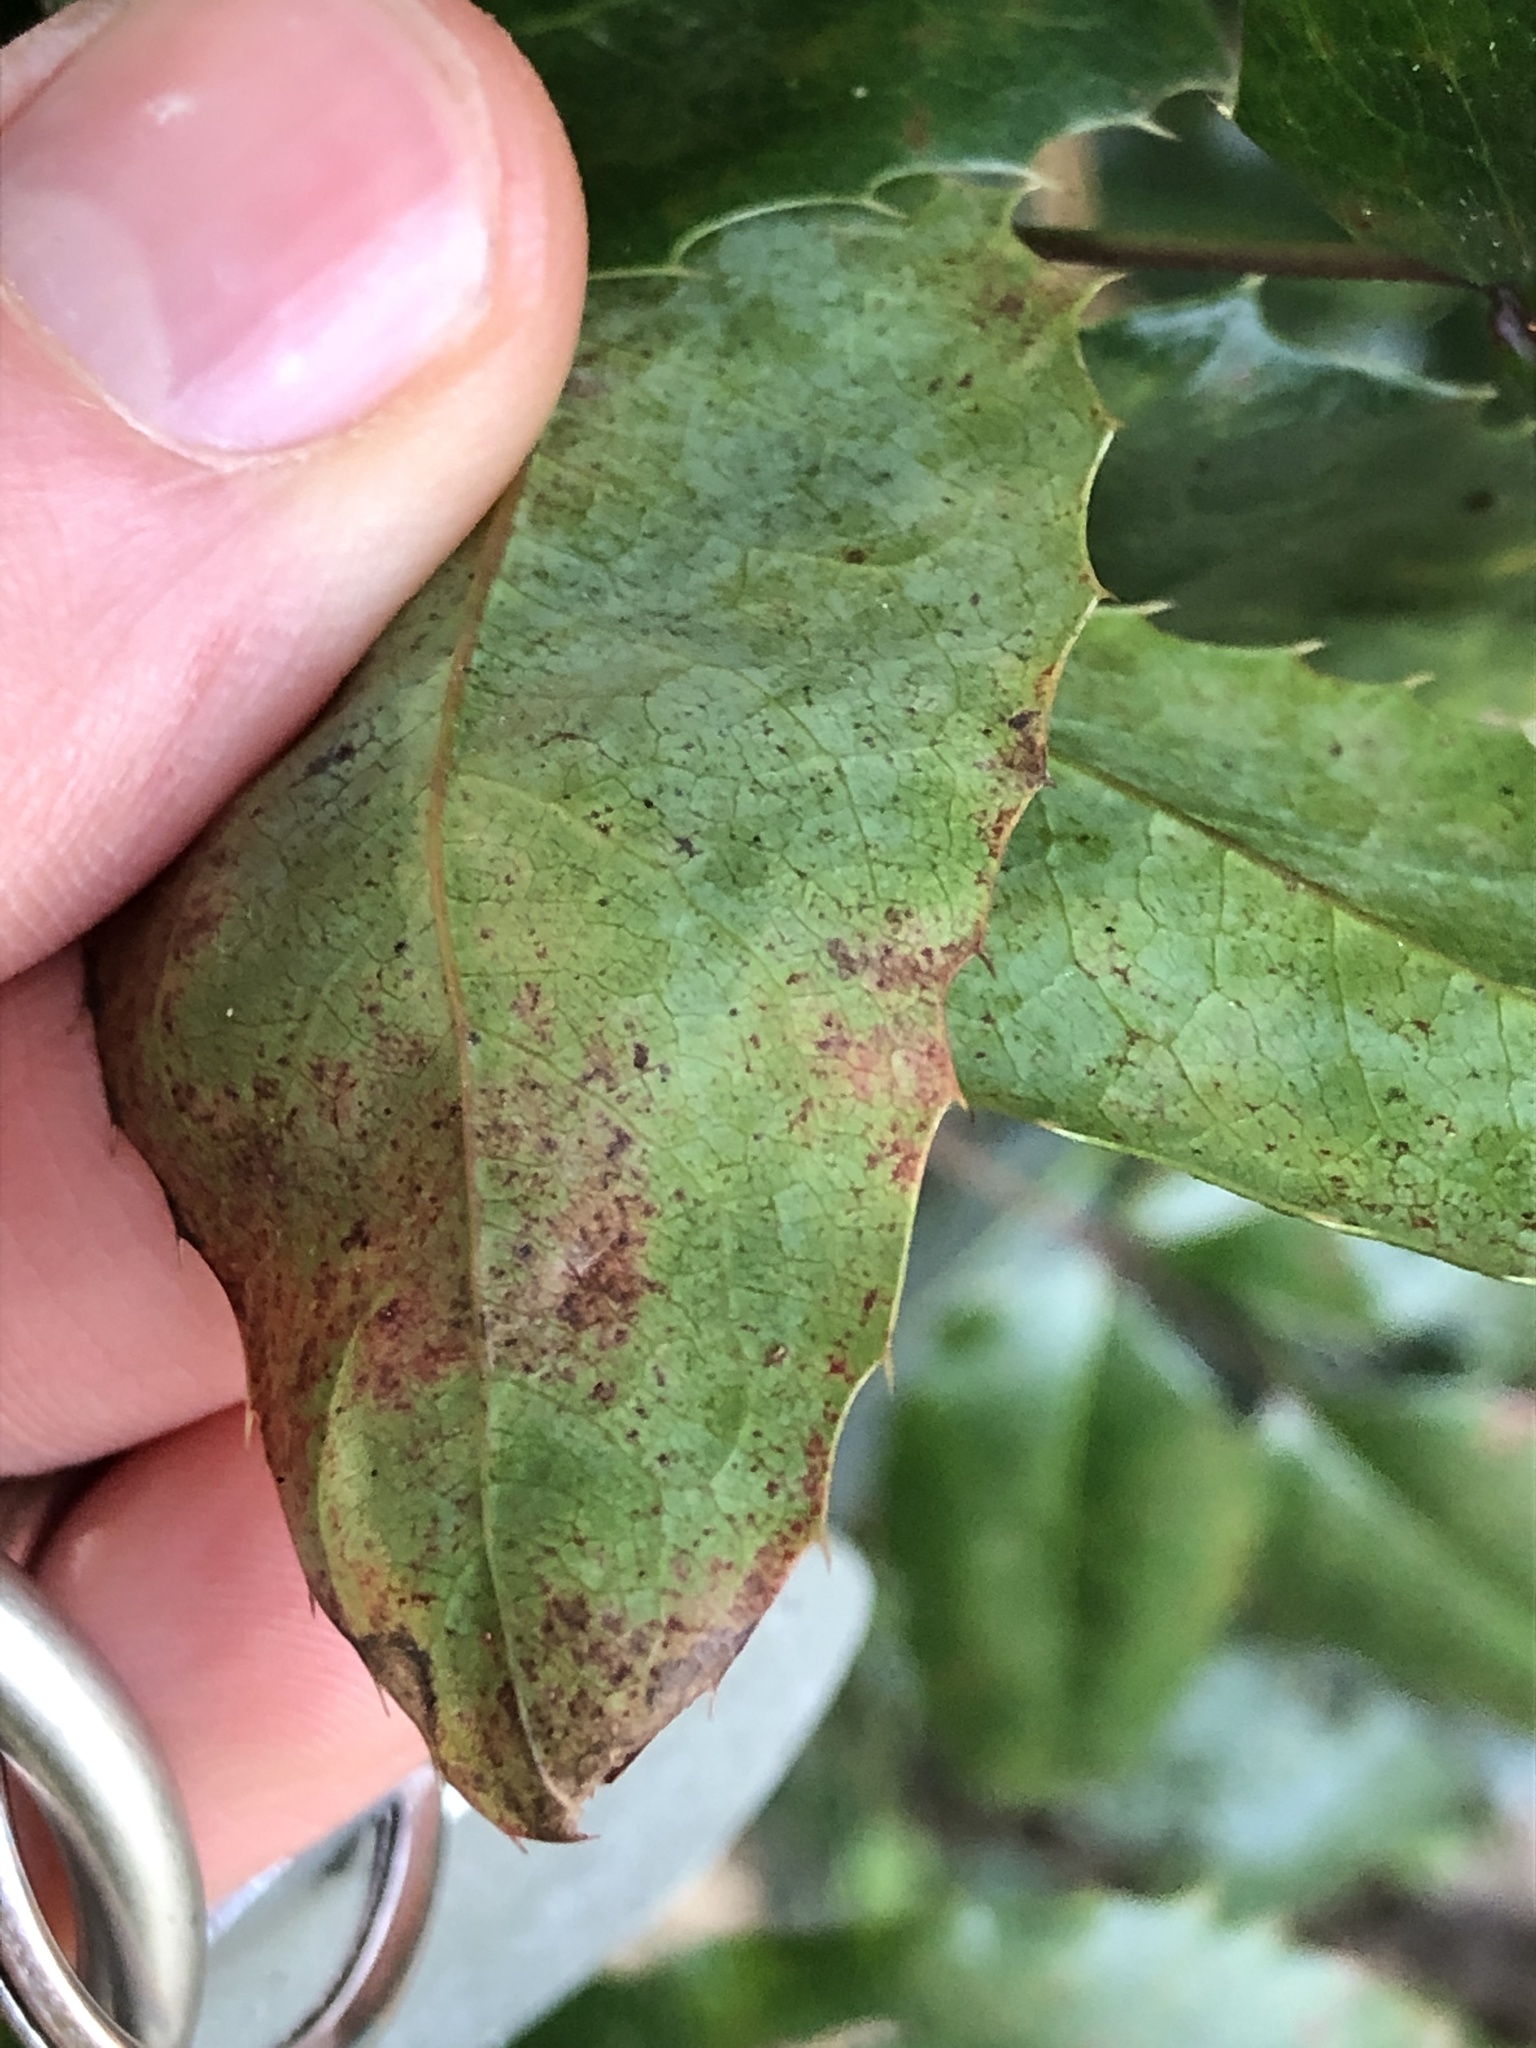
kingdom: Fungi
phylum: Basidiomycota
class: Pucciniomycetes
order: Pucciniales
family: Pucciniaceae
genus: Cumminsiella
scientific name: Cumminsiella mirabilissima
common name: Mahonia rust
